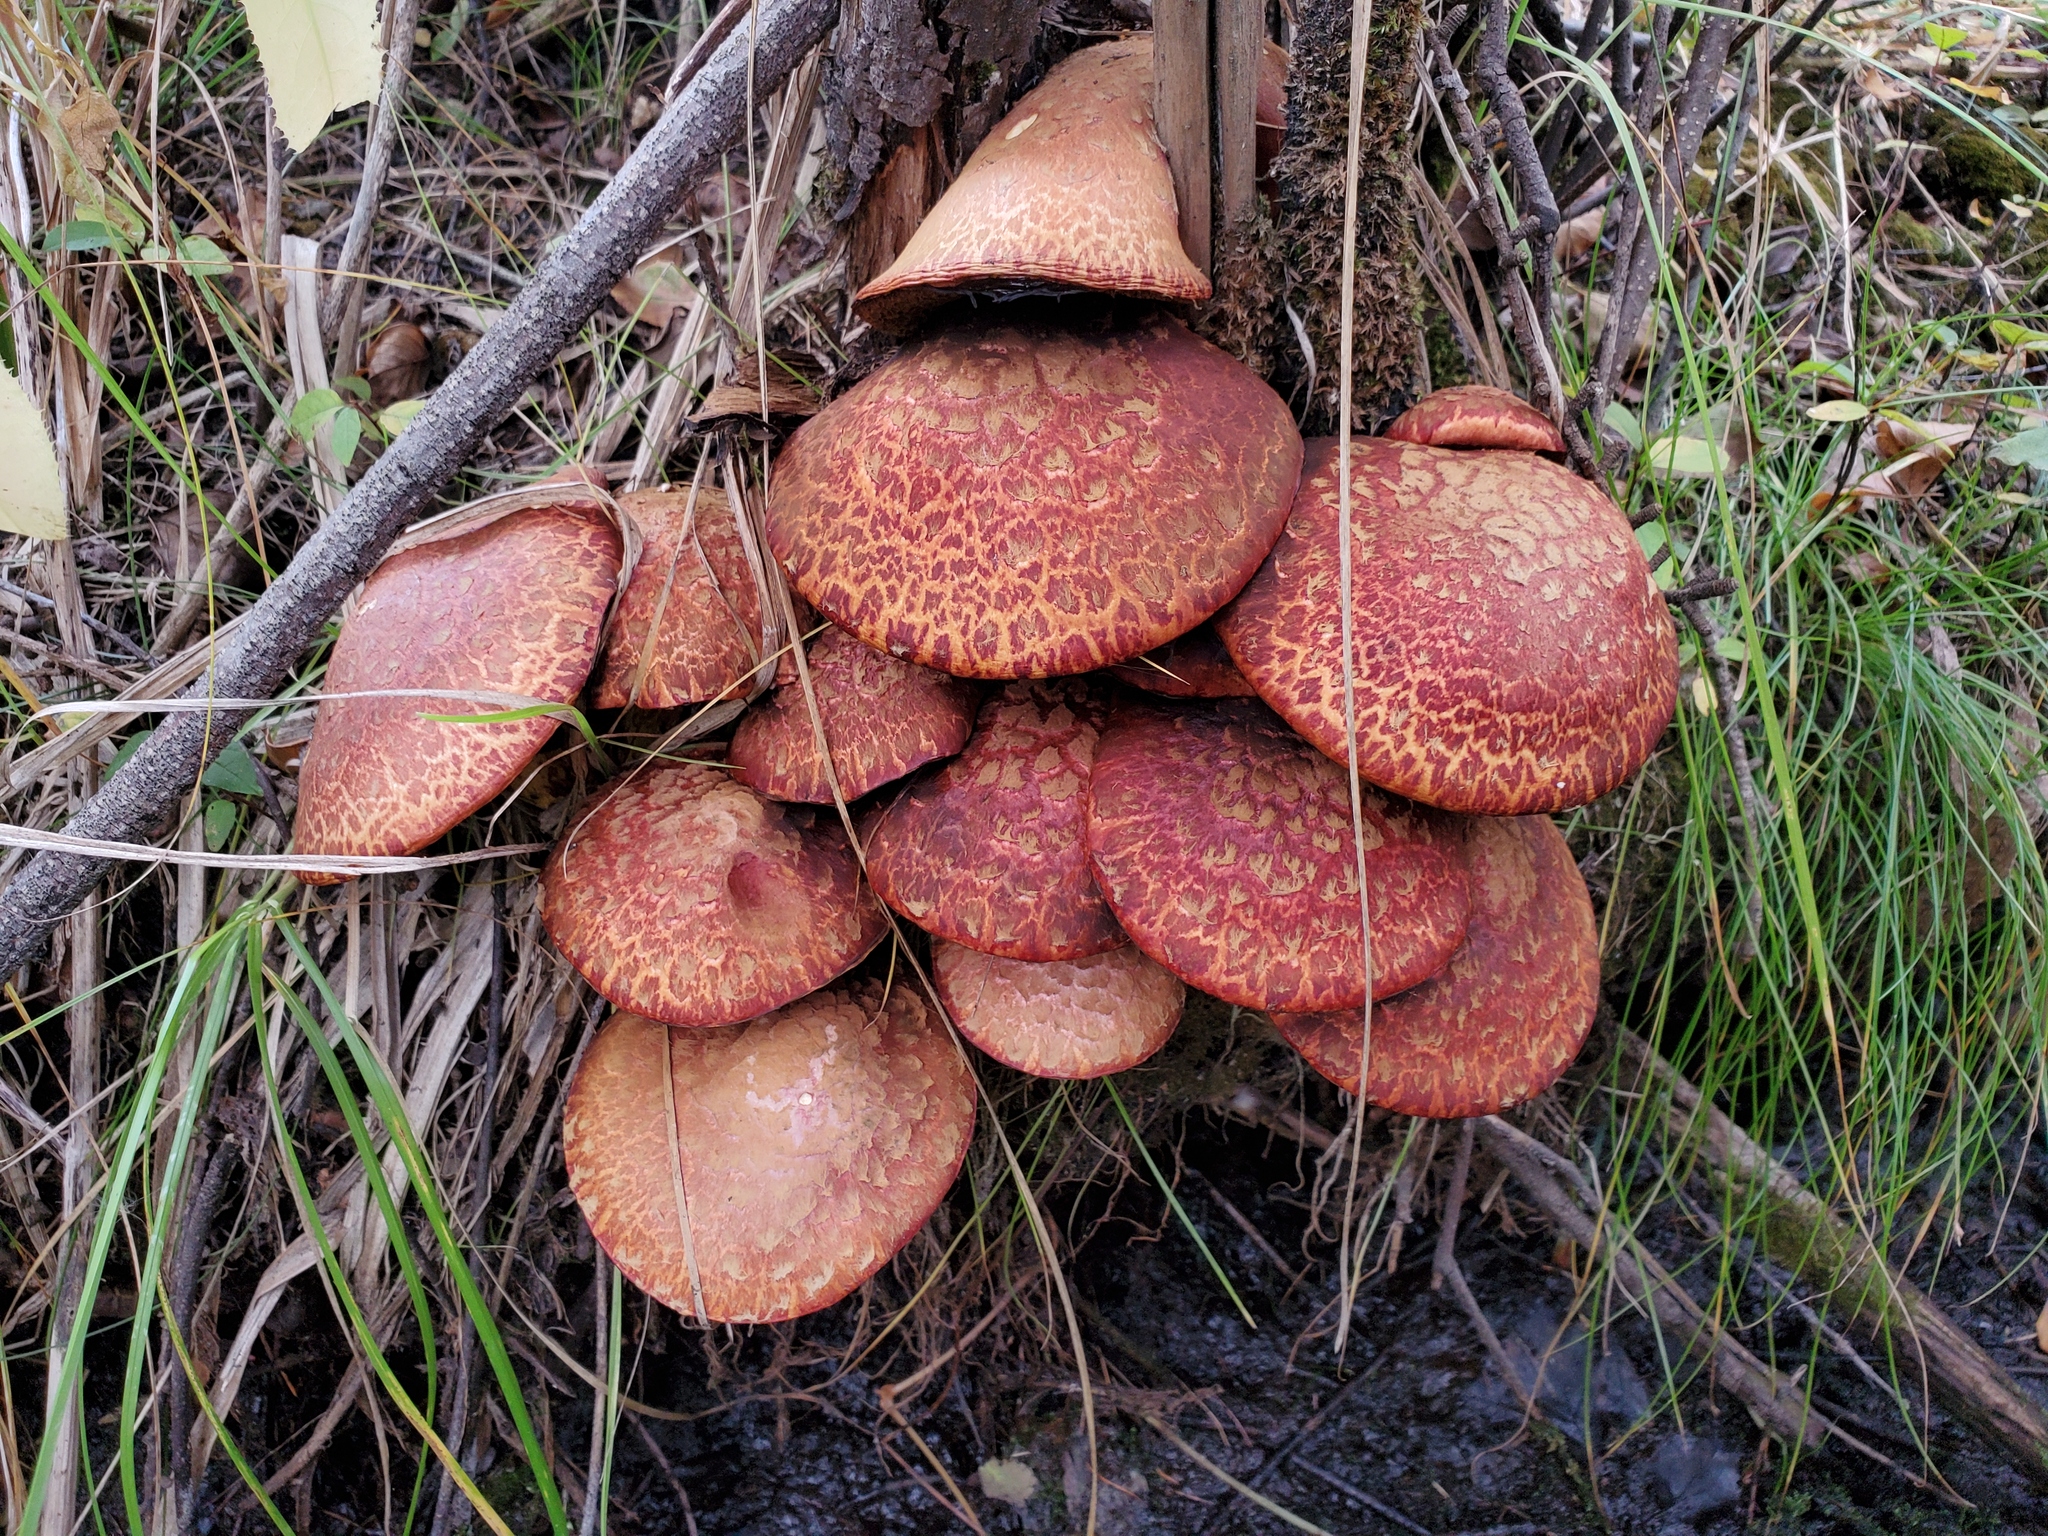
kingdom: Fungi
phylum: Basidiomycota
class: Agaricomycetes
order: Boletales
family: Suillaceae
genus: Suillus
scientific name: Suillus spraguei
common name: Painted suillus
